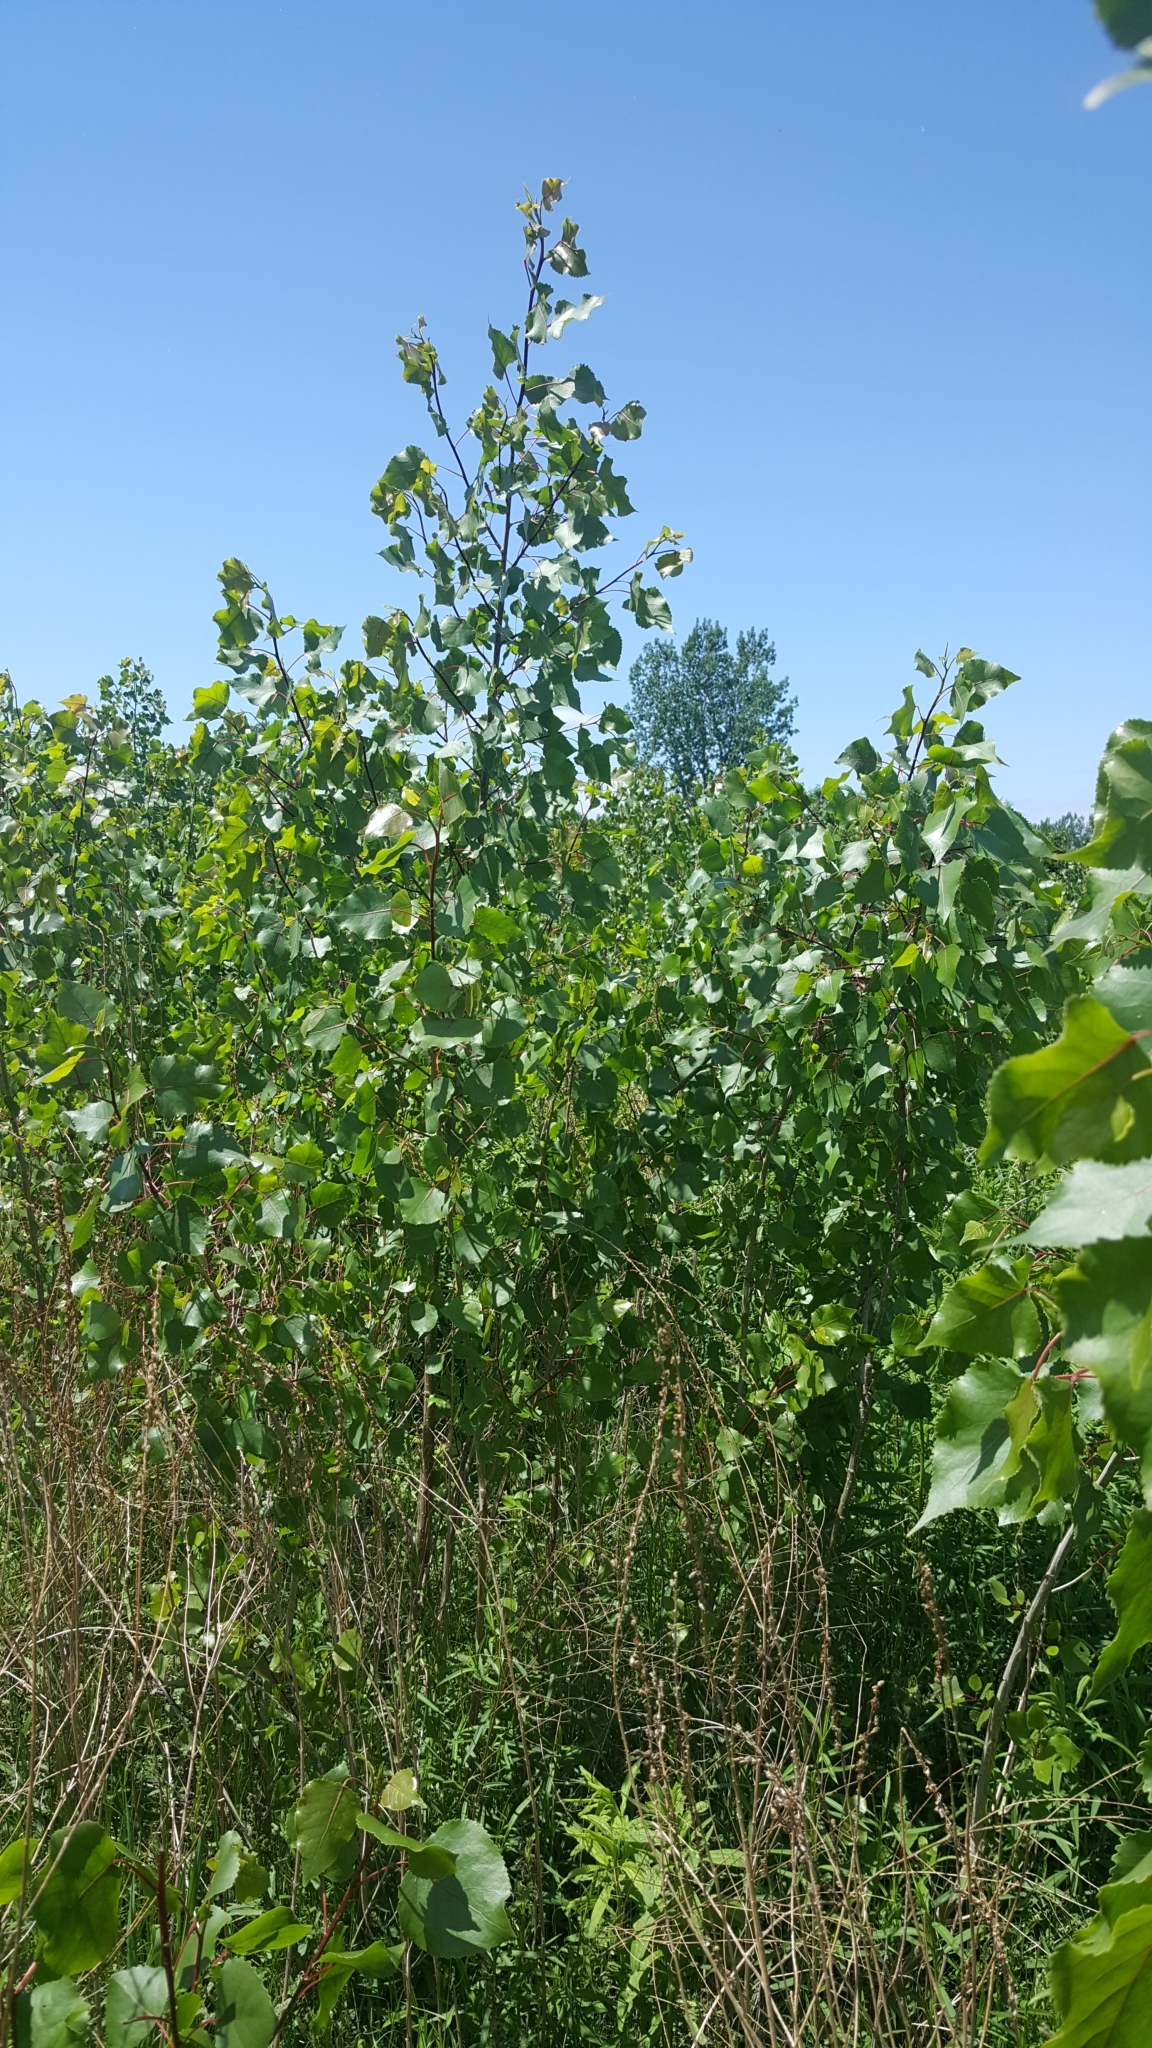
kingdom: Plantae
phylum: Tracheophyta
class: Magnoliopsida
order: Malpighiales
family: Salicaceae
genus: Populus
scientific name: Populus deltoides
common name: Eastern cottonwood
